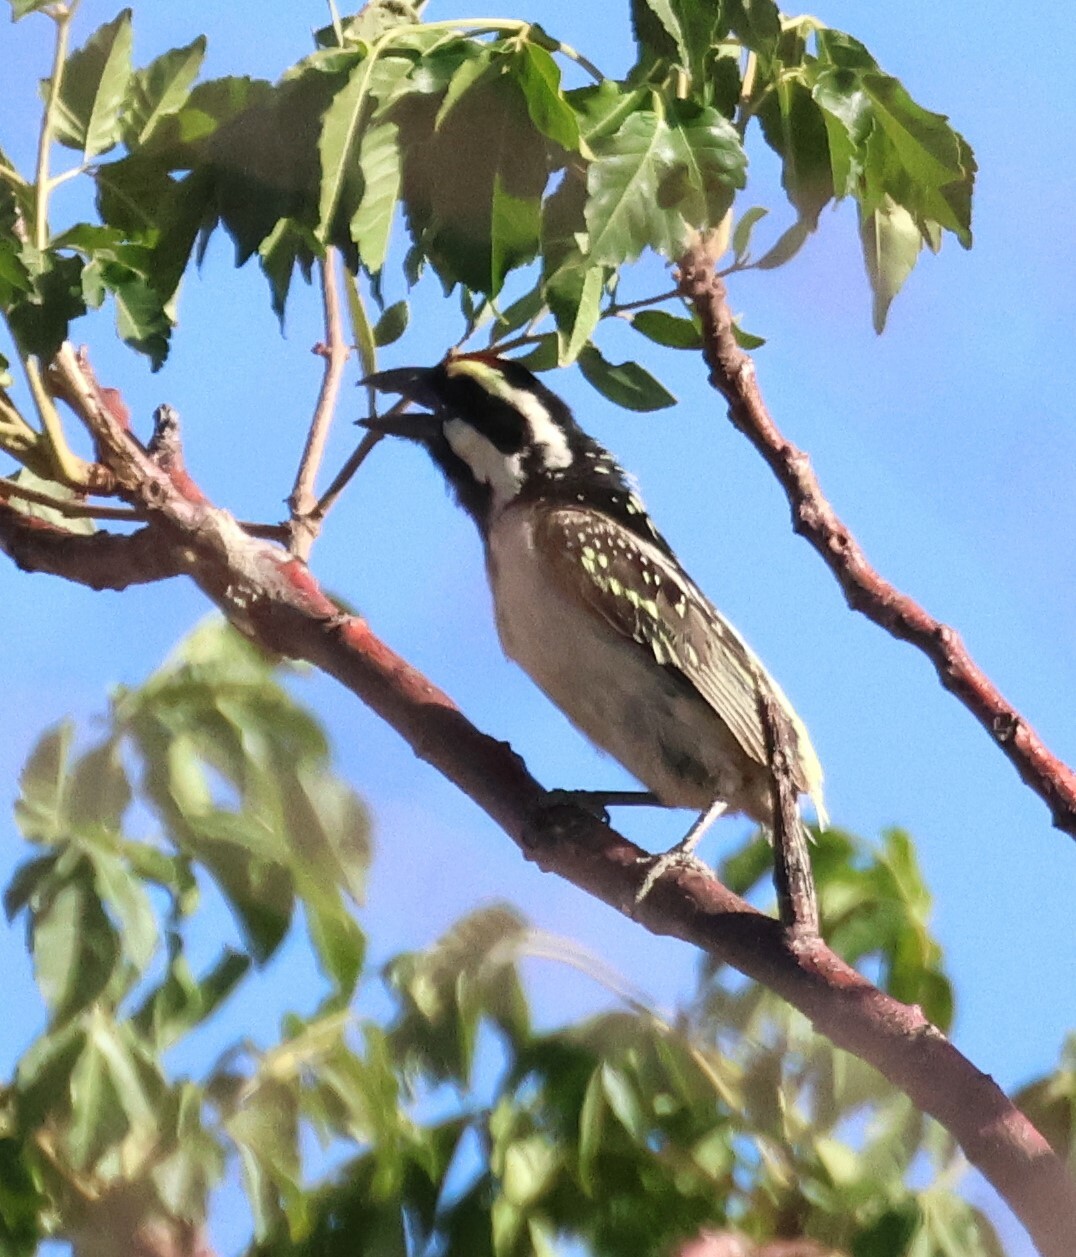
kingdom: Animalia
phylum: Chordata
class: Aves
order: Piciformes
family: Lybiidae
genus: Tricholaema
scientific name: Tricholaema leucomelas
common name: Acacia pied barbet
